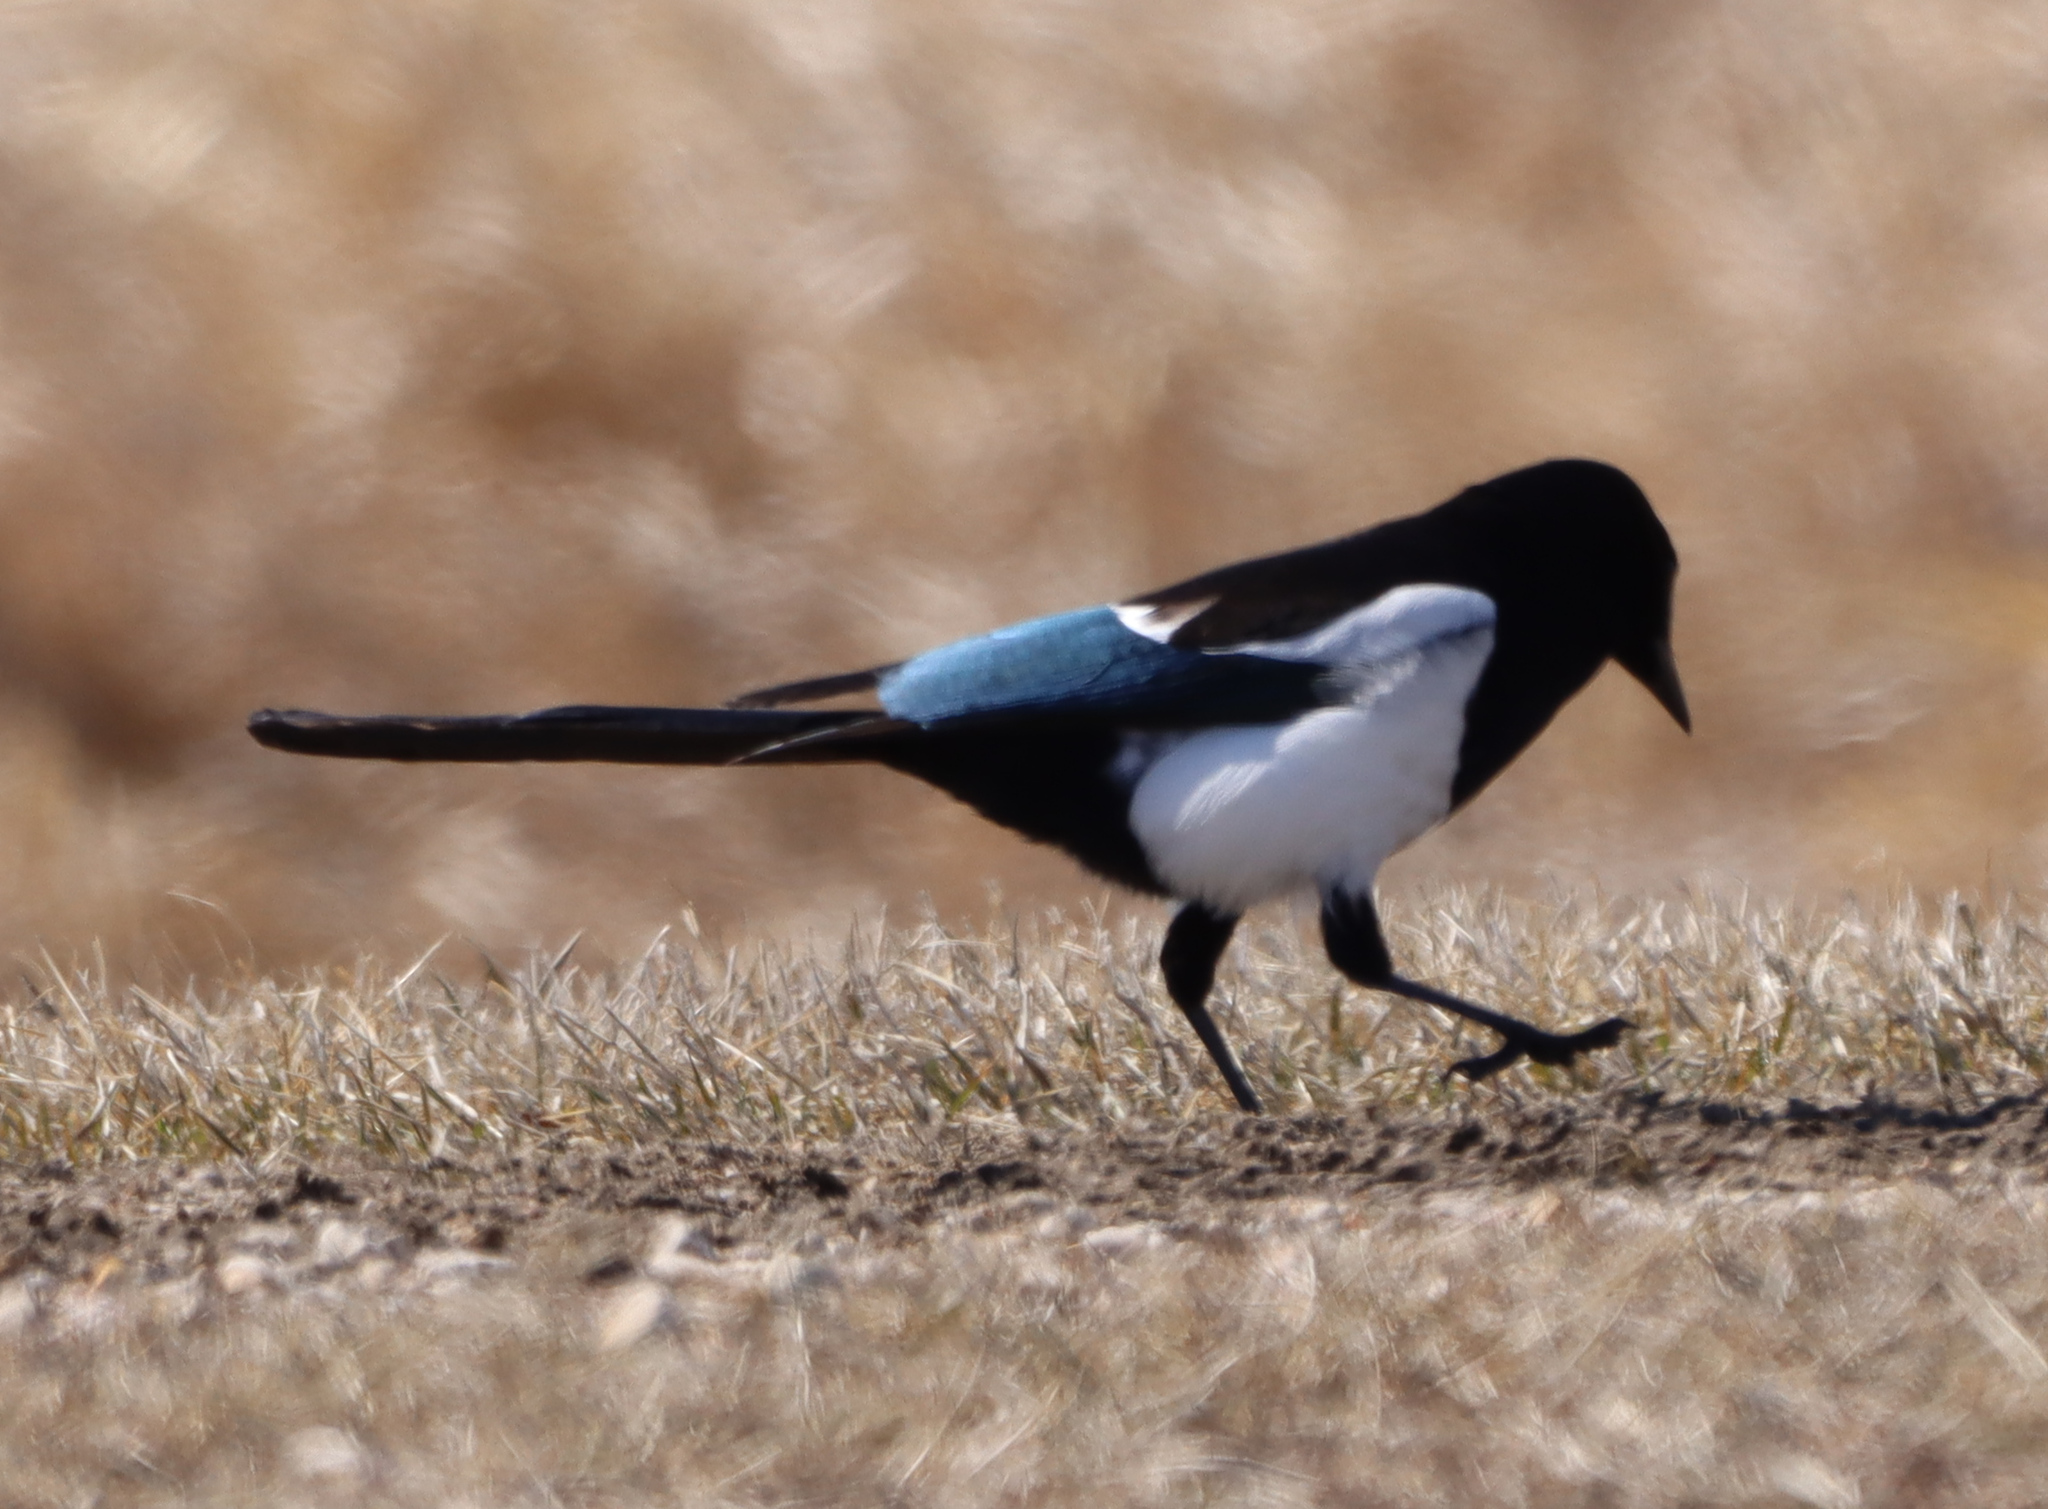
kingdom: Animalia
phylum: Chordata
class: Aves
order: Passeriformes
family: Corvidae
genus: Pica
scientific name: Pica hudsonia
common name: Black-billed magpie
